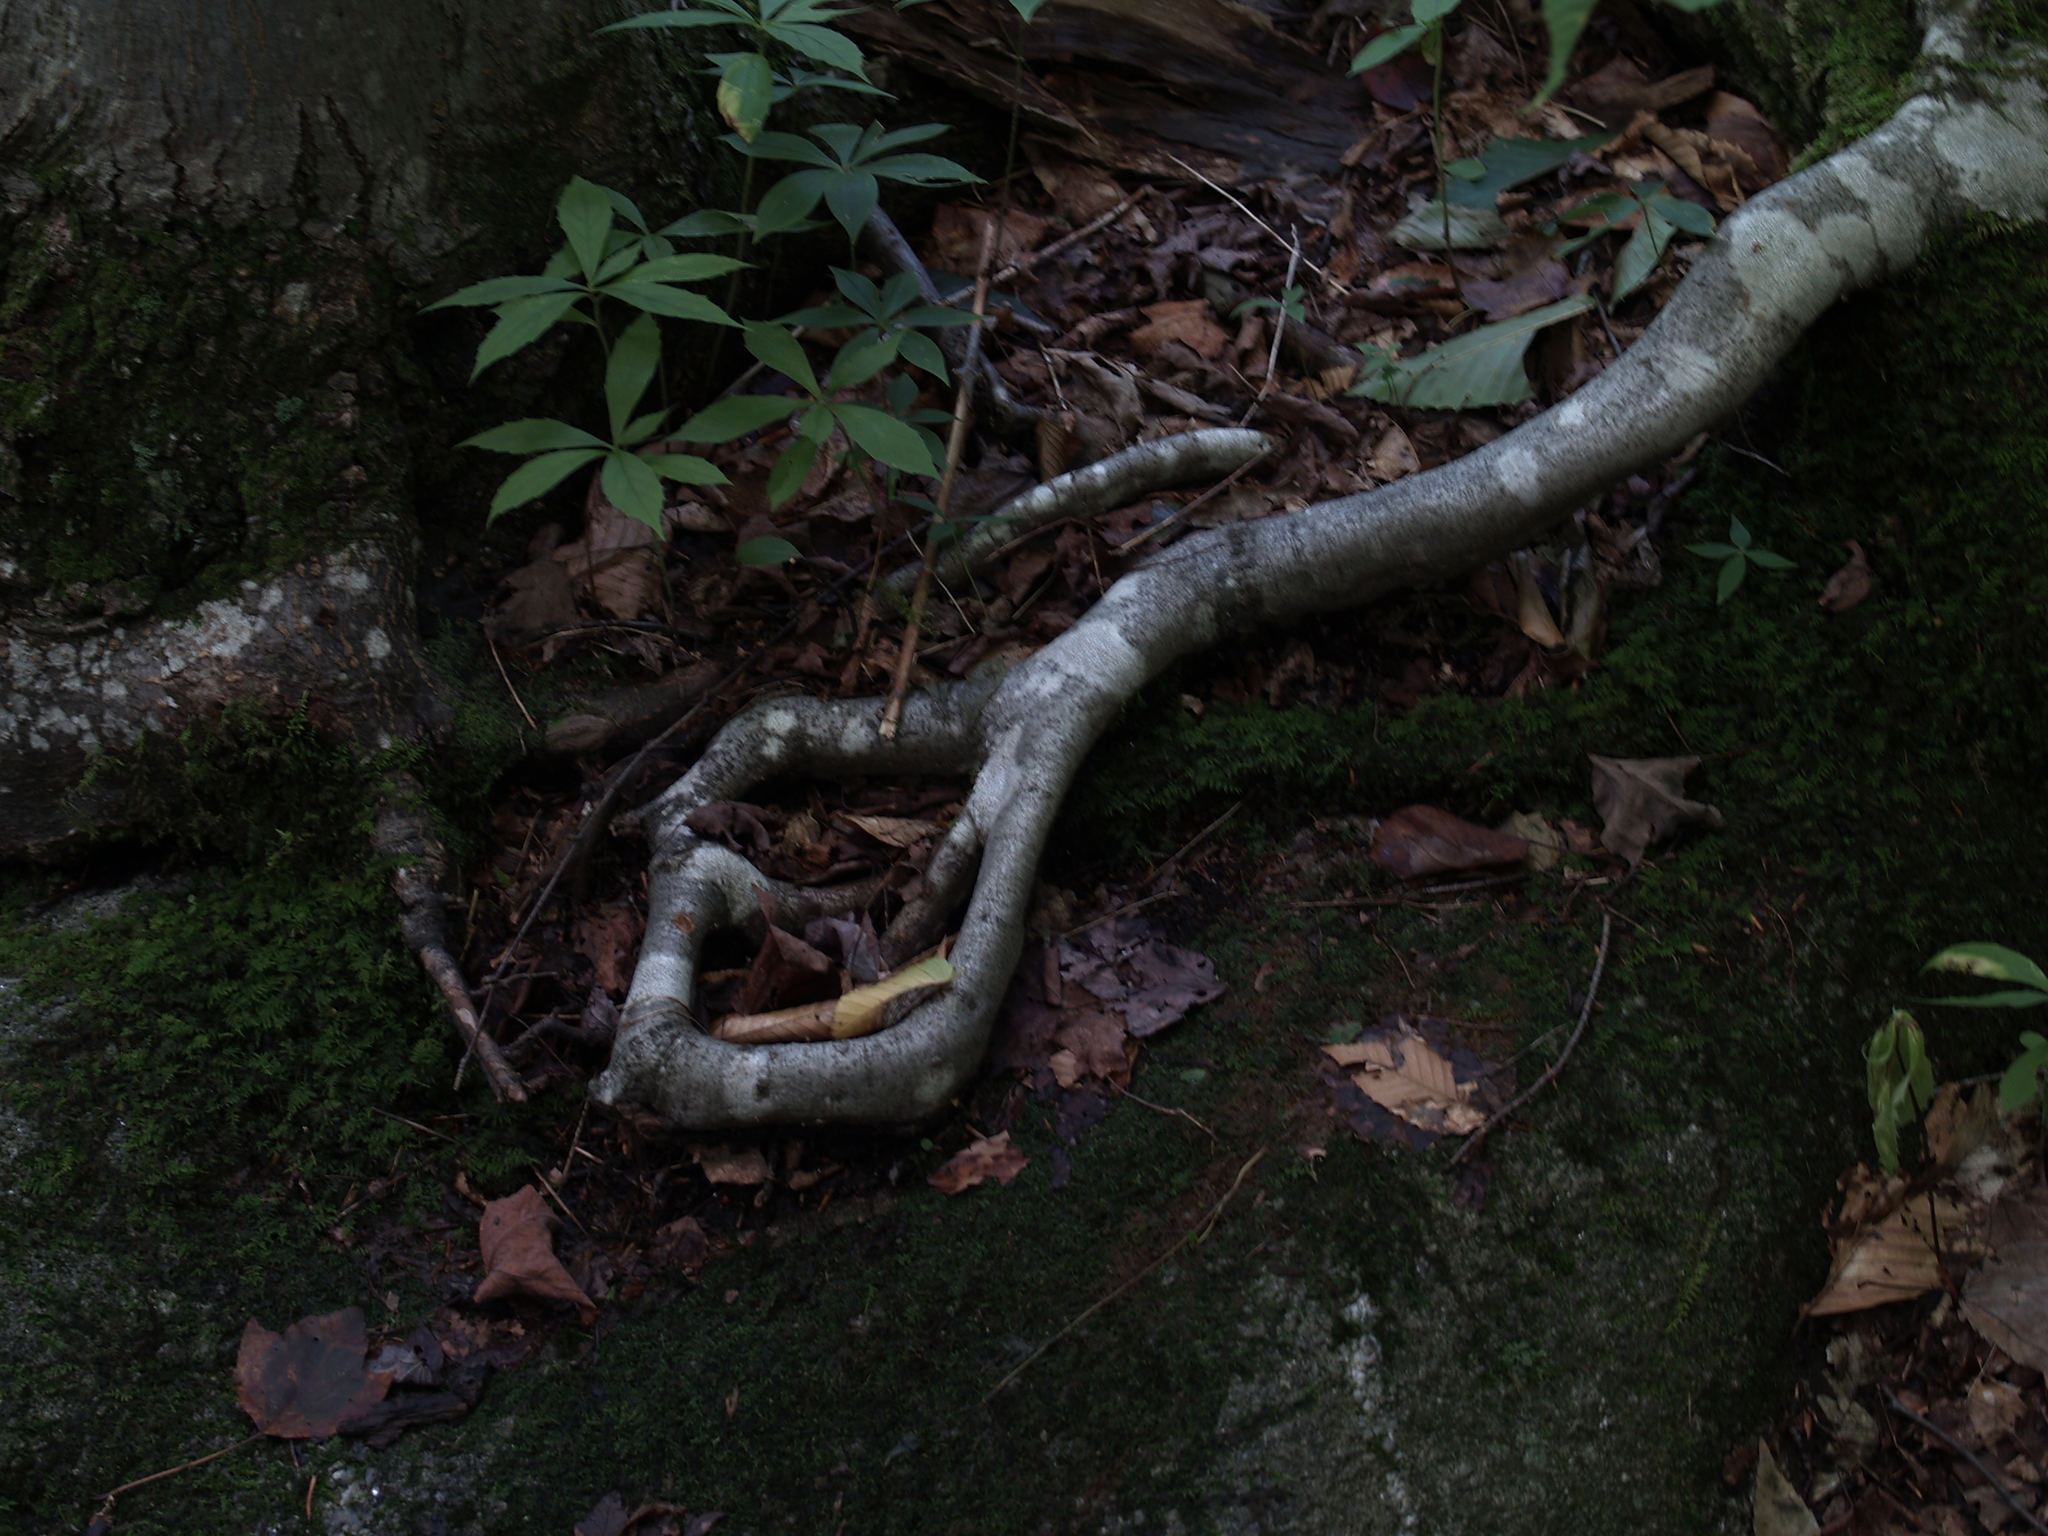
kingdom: Plantae
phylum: Tracheophyta
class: Magnoliopsida
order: Asterales
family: Asteraceae
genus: Oclemena
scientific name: Oclemena acuminata
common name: Mountain aster
